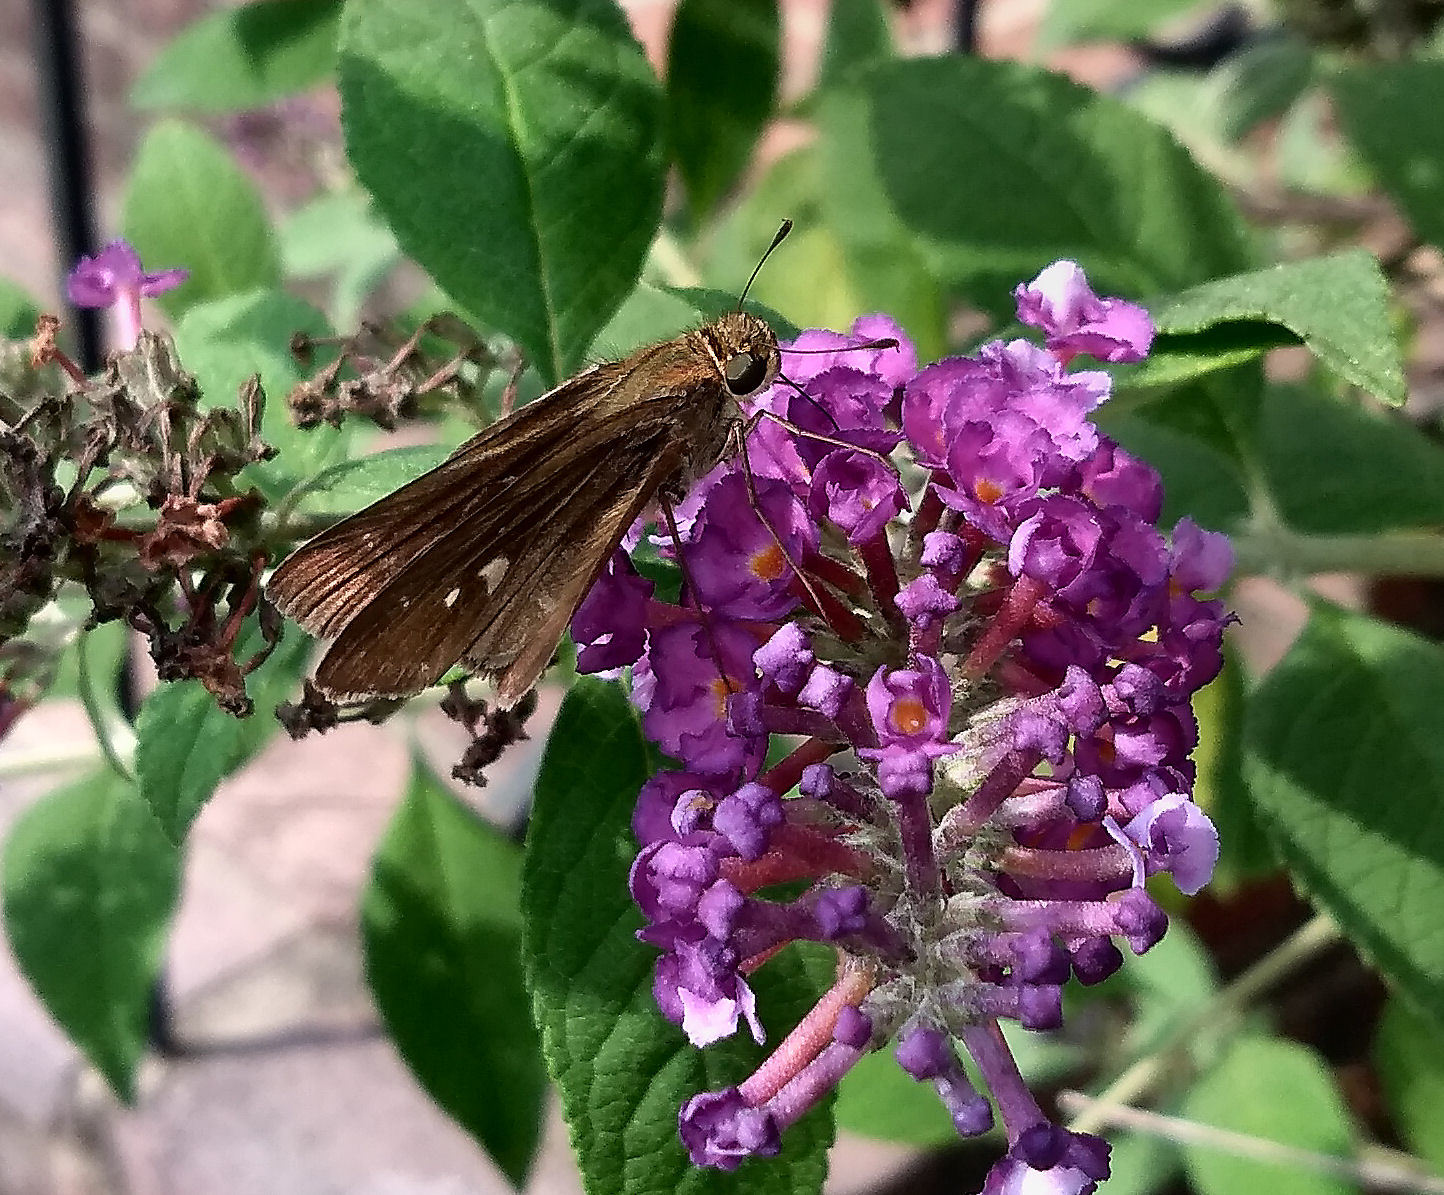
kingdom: Animalia
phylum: Arthropoda
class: Insecta
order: Lepidoptera
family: Hesperiidae
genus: Panoquina
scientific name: Panoquina ocola
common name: Ocola skipper
